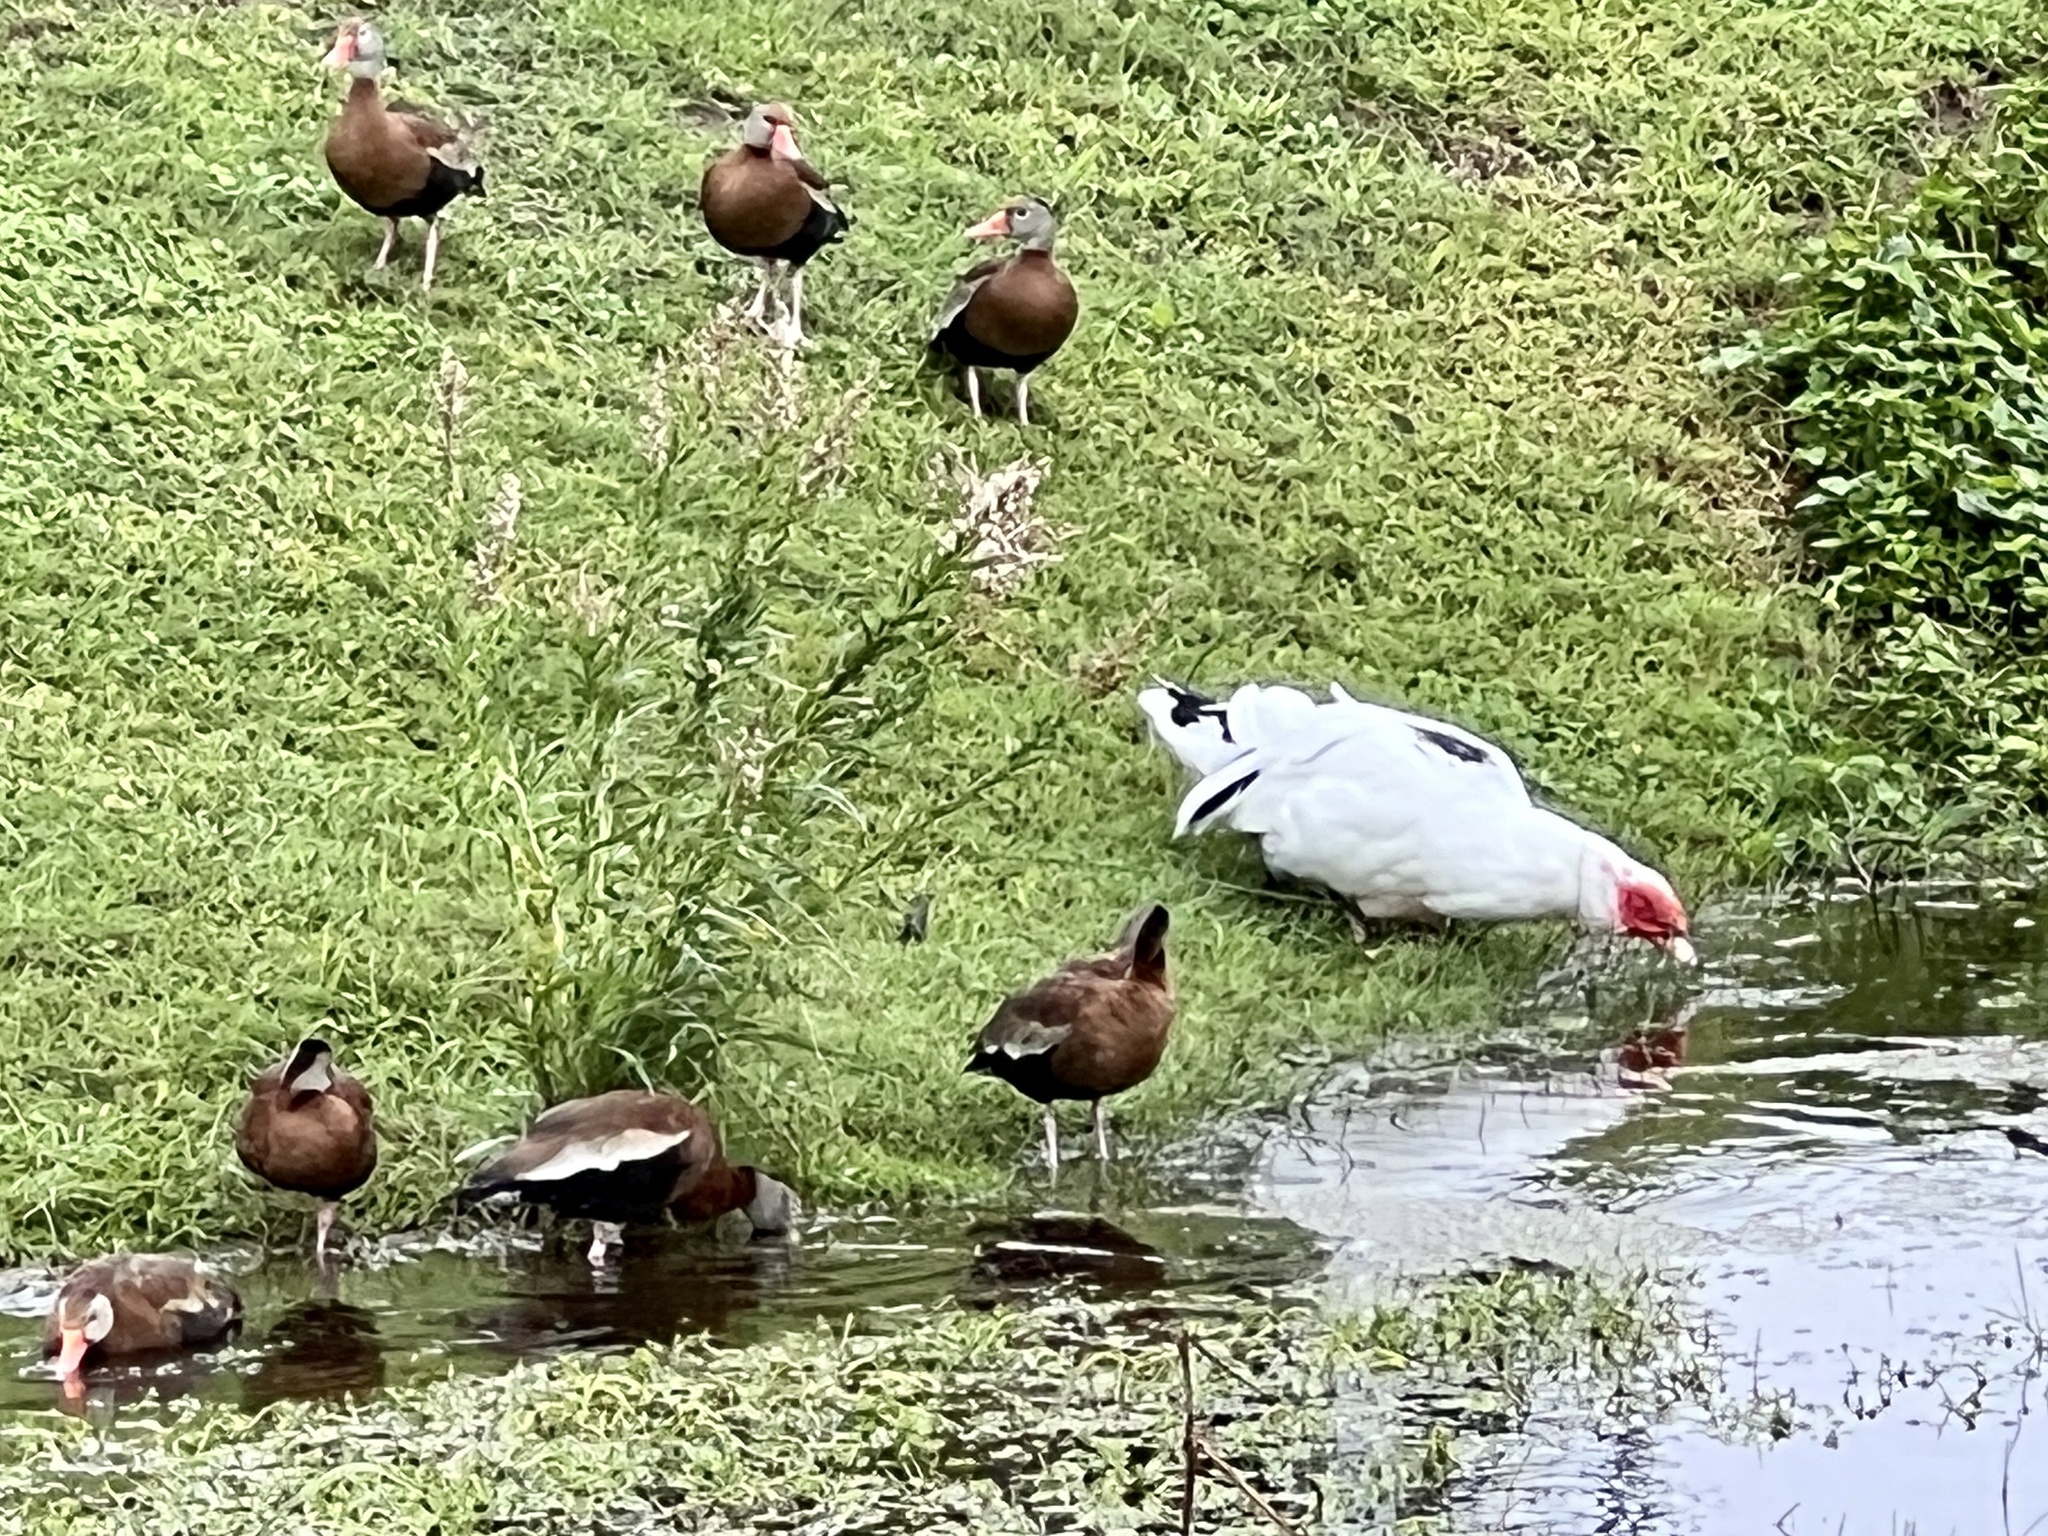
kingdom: Animalia
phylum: Chordata
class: Aves
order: Anseriformes
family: Anatidae
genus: Cairina
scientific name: Cairina moschata
